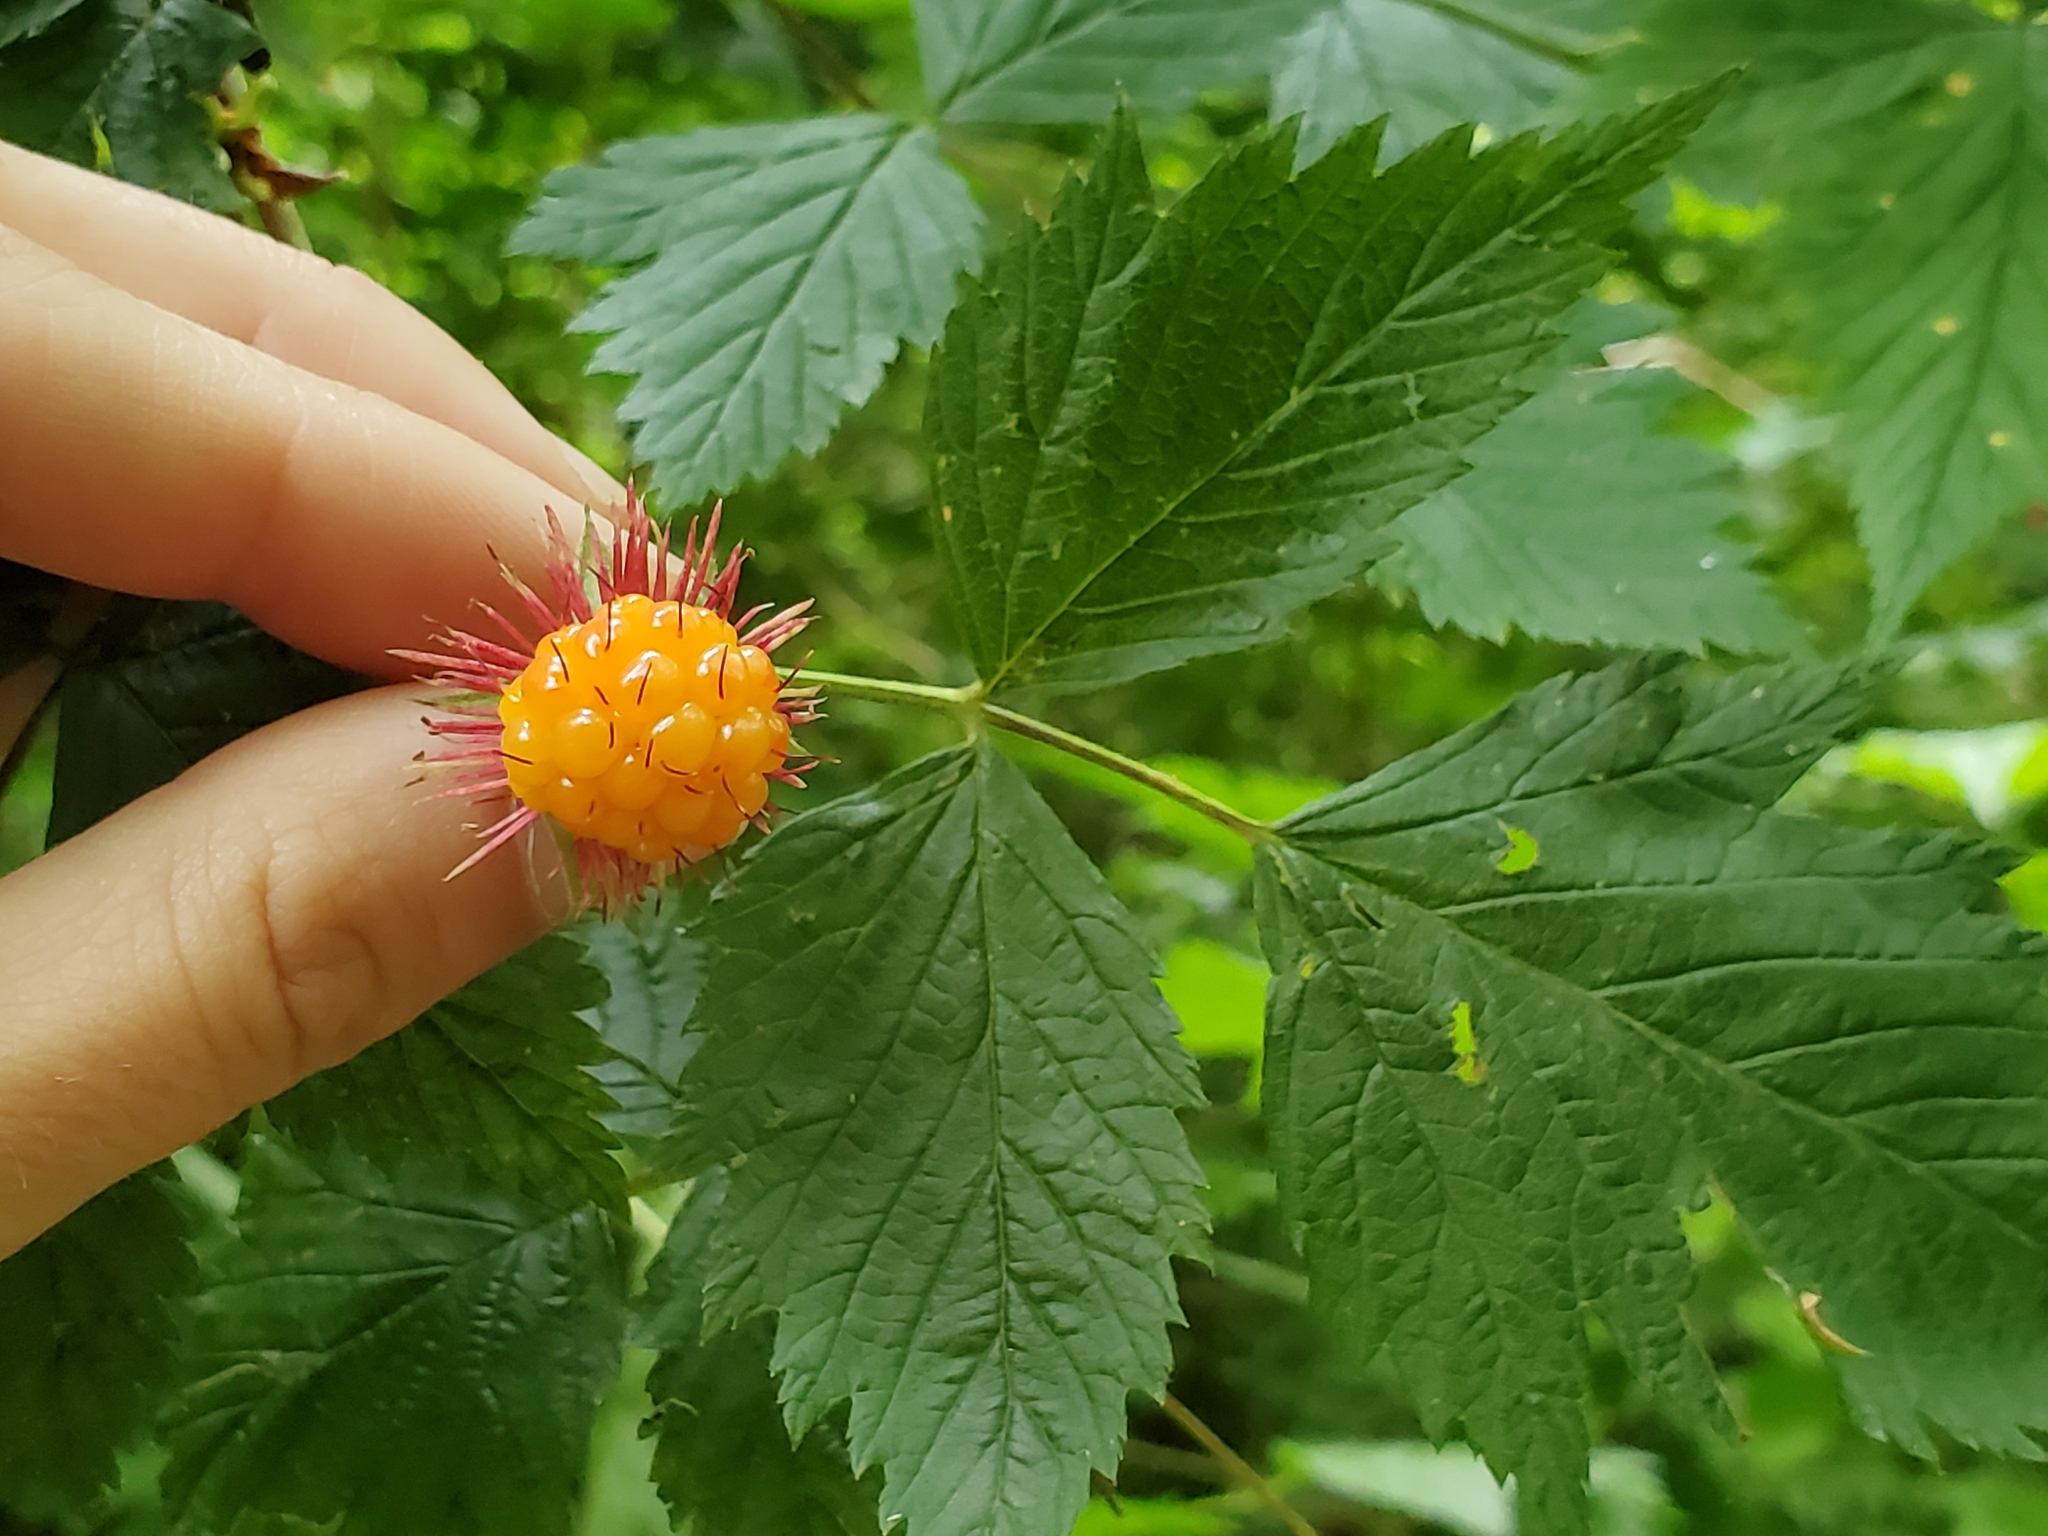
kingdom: Plantae
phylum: Tracheophyta
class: Magnoliopsida
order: Rosales
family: Rosaceae
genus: Rubus
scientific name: Rubus spectabilis
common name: Salmonberry
